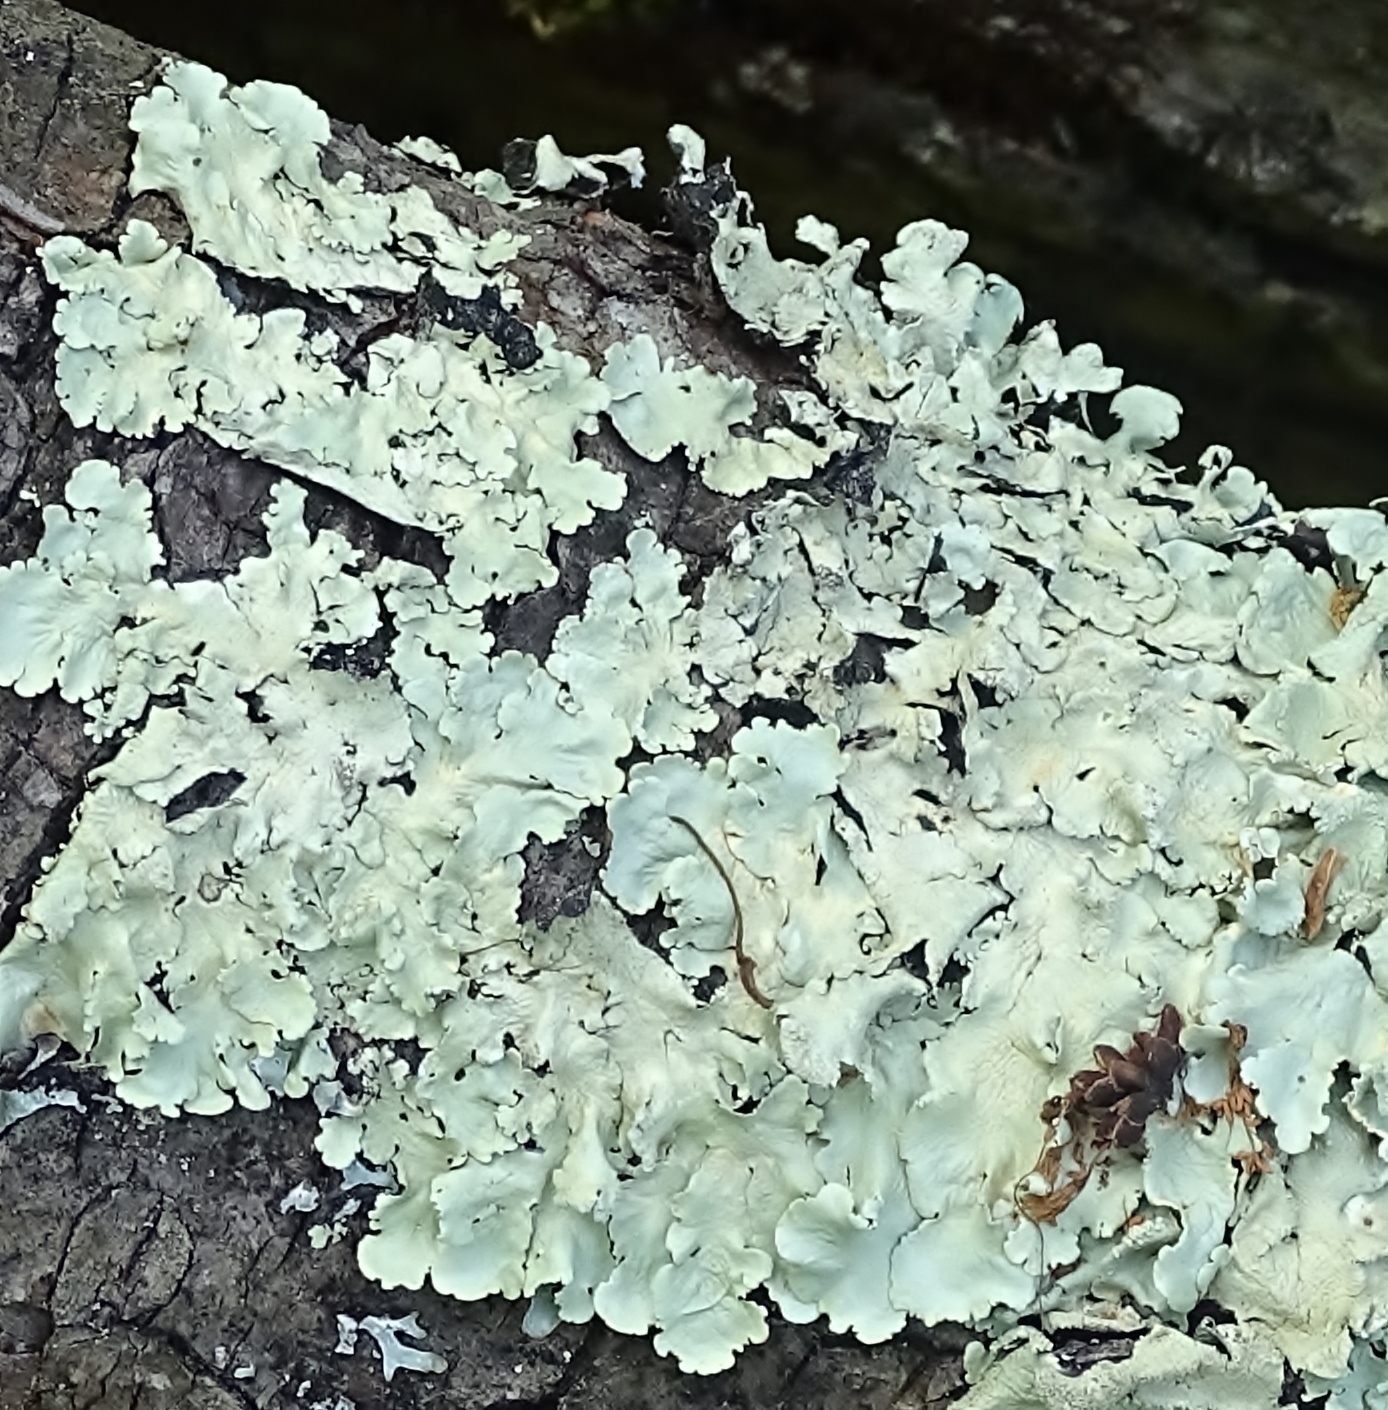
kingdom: Fungi
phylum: Ascomycota
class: Lecanoromycetes
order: Lecanorales
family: Parmeliaceae
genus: Flavoparmelia
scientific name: Flavoparmelia caperata
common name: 40-mile per hour lichen
